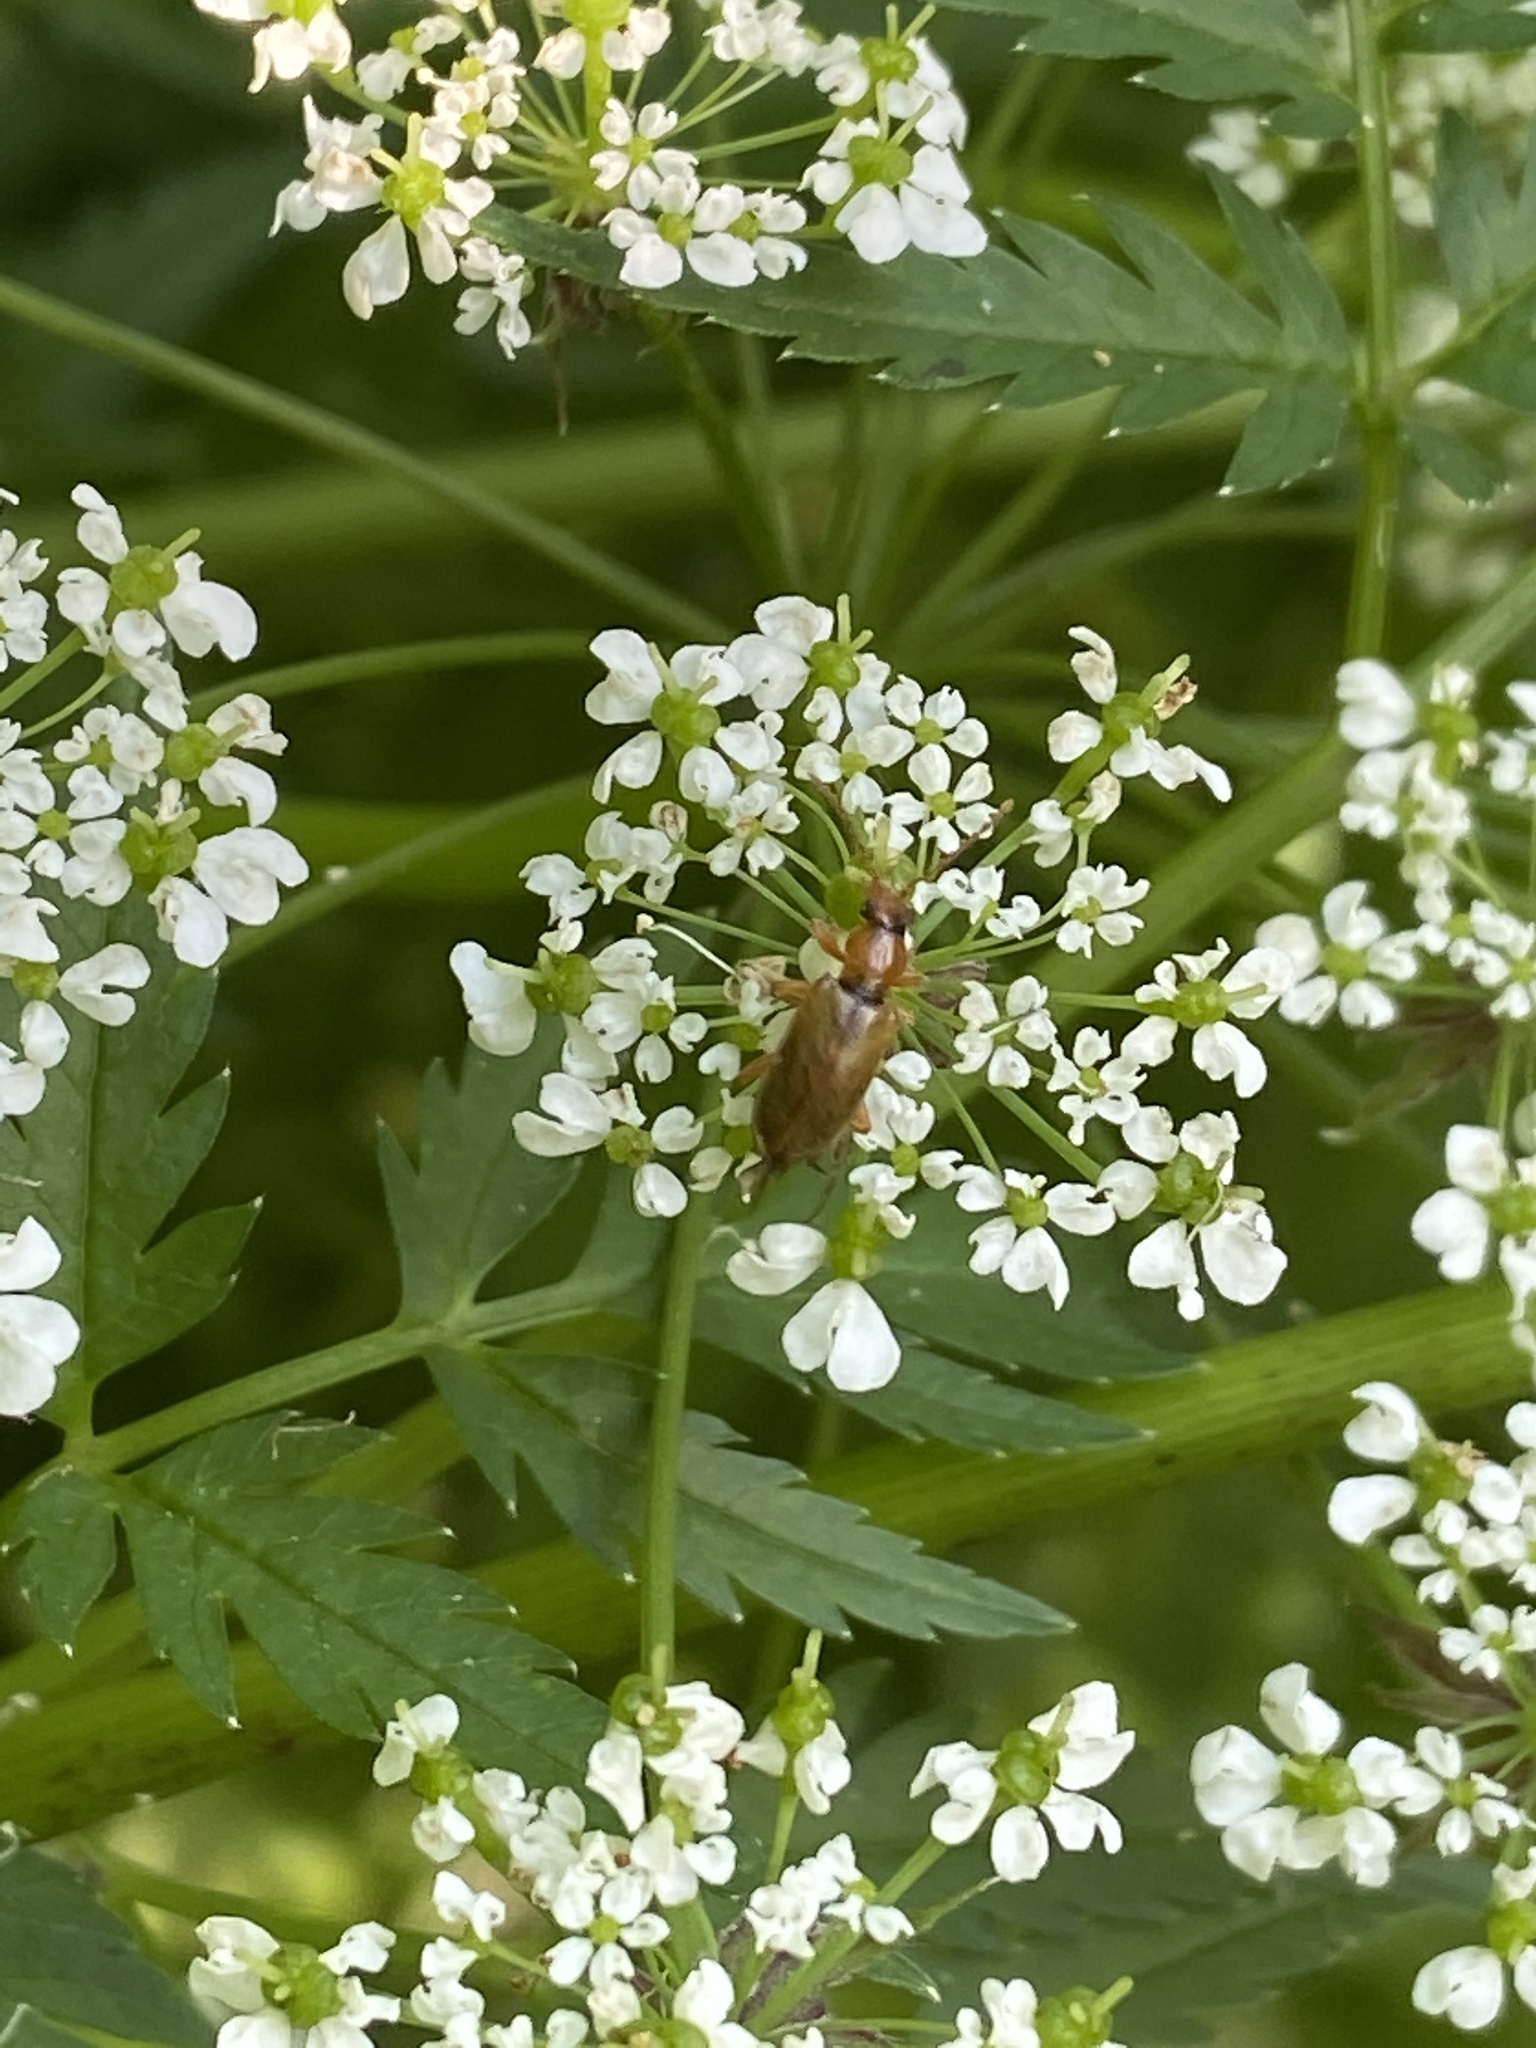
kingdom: Animalia
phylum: Arthropoda
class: Insecta
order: Coleoptera
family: Orsodacnidae
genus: Orsodacne
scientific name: Orsodacne cerasi
